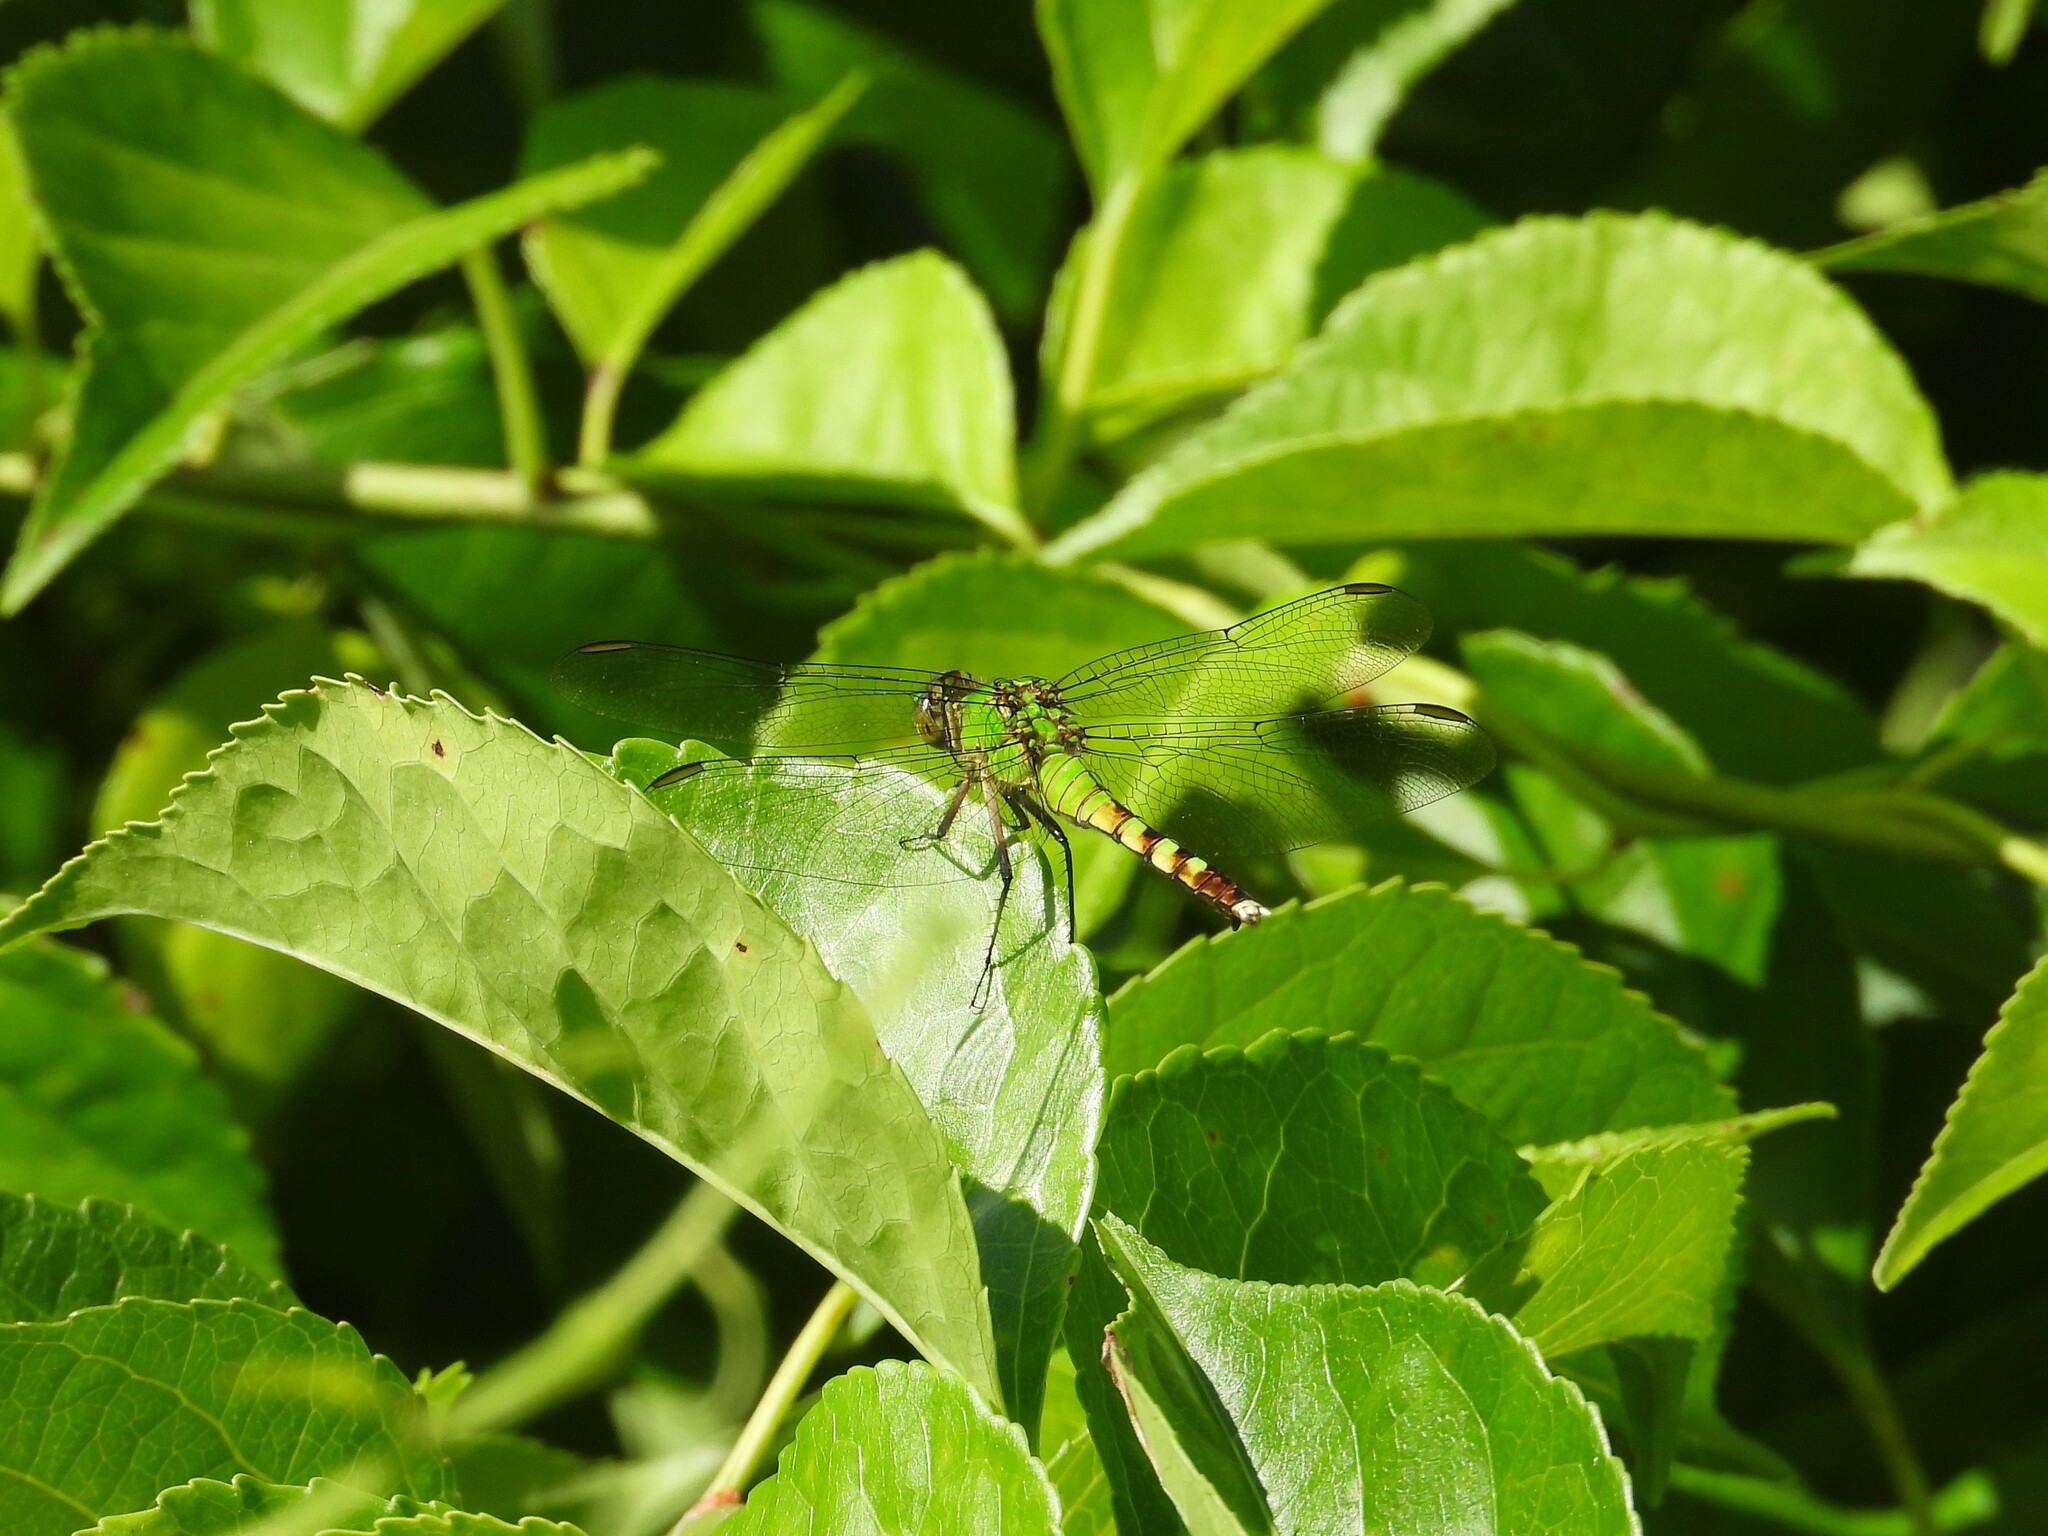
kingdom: Animalia
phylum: Arthropoda
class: Insecta
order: Odonata
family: Libellulidae
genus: Erythemis
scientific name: Erythemis simplicicollis
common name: Eastern pondhawk
